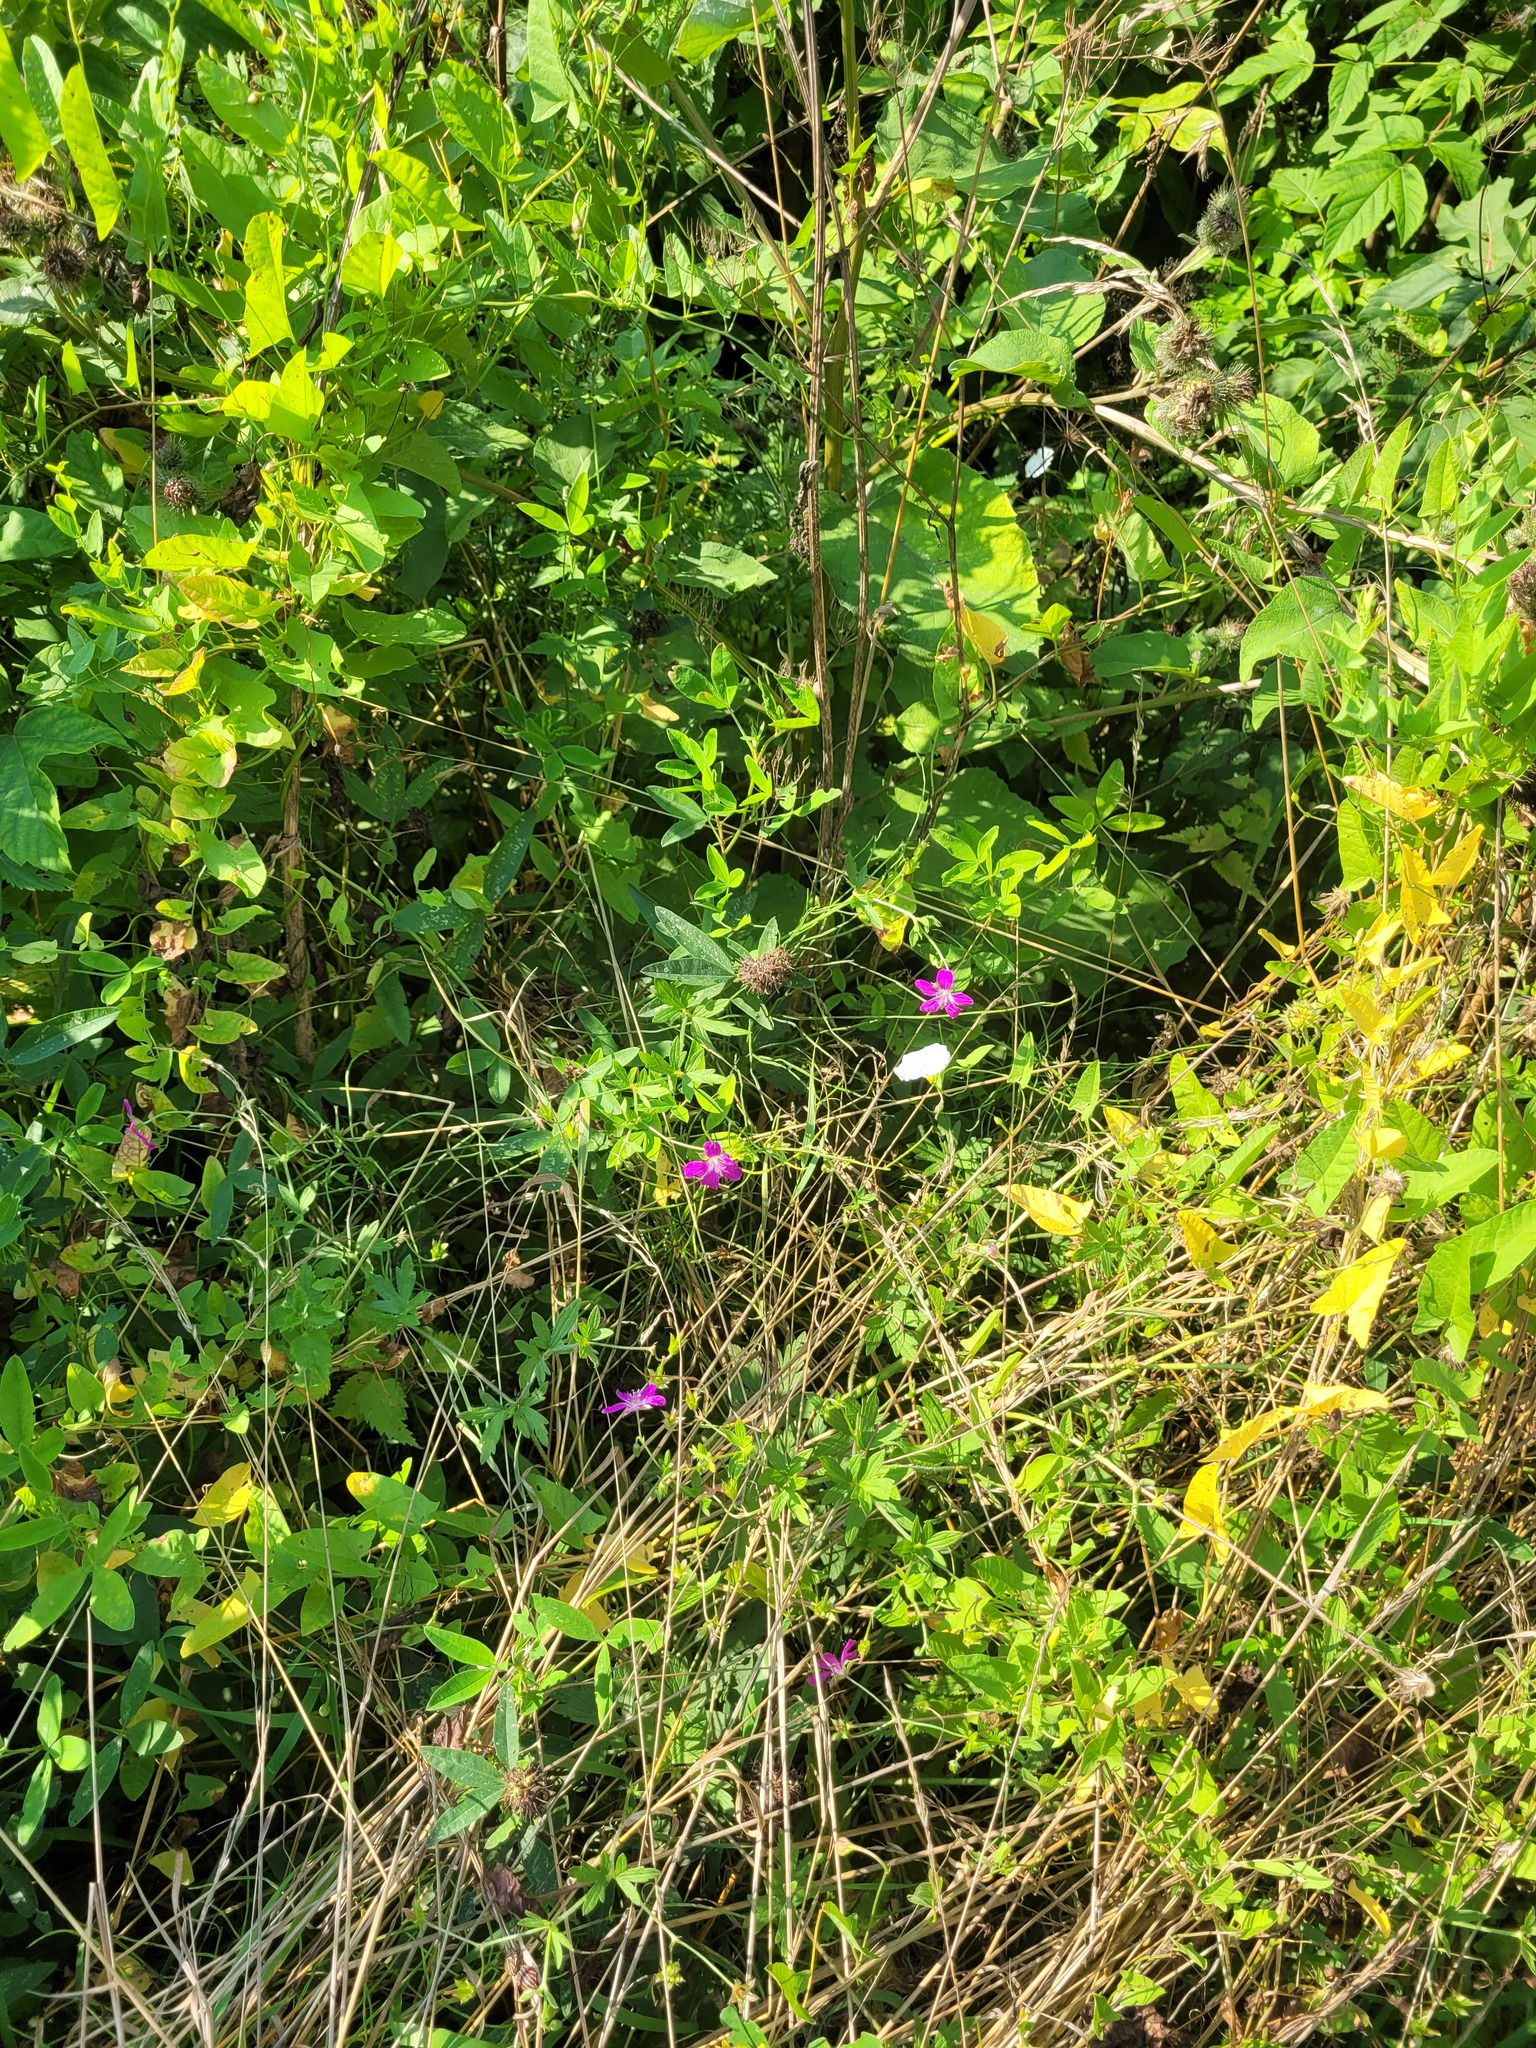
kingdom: Plantae
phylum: Tracheophyta
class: Magnoliopsida
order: Geraniales
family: Geraniaceae
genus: Geranium
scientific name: Geranium palustre
